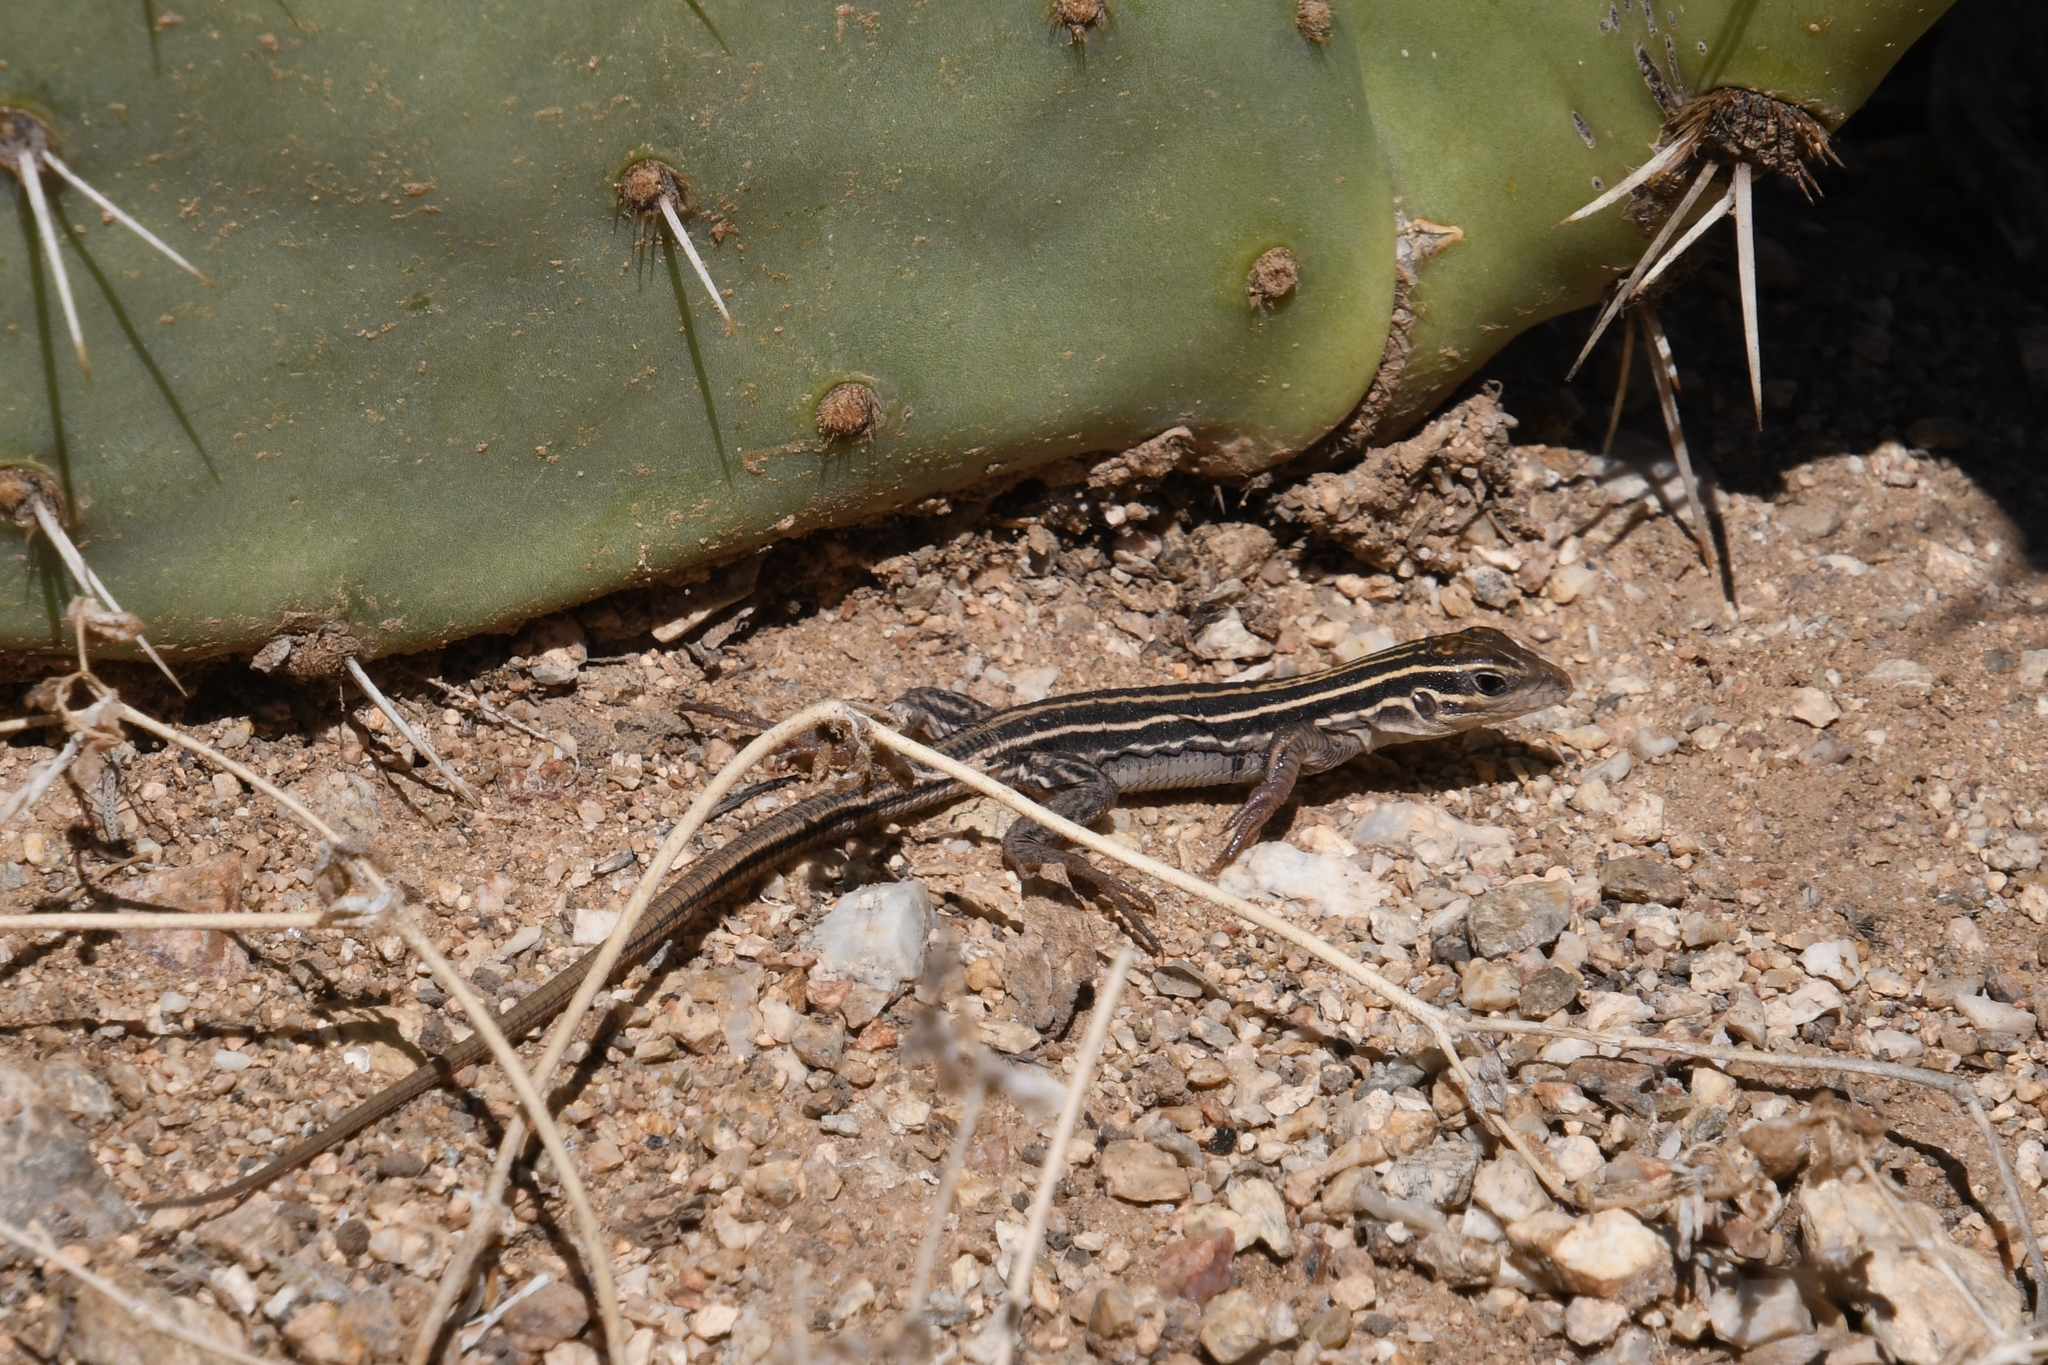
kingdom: Animalia
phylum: Chordata
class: Squamata
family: Teiidae
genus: Aspidoscelis
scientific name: Aspidoscelis sonorae
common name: Sonoran spotted whiptail
